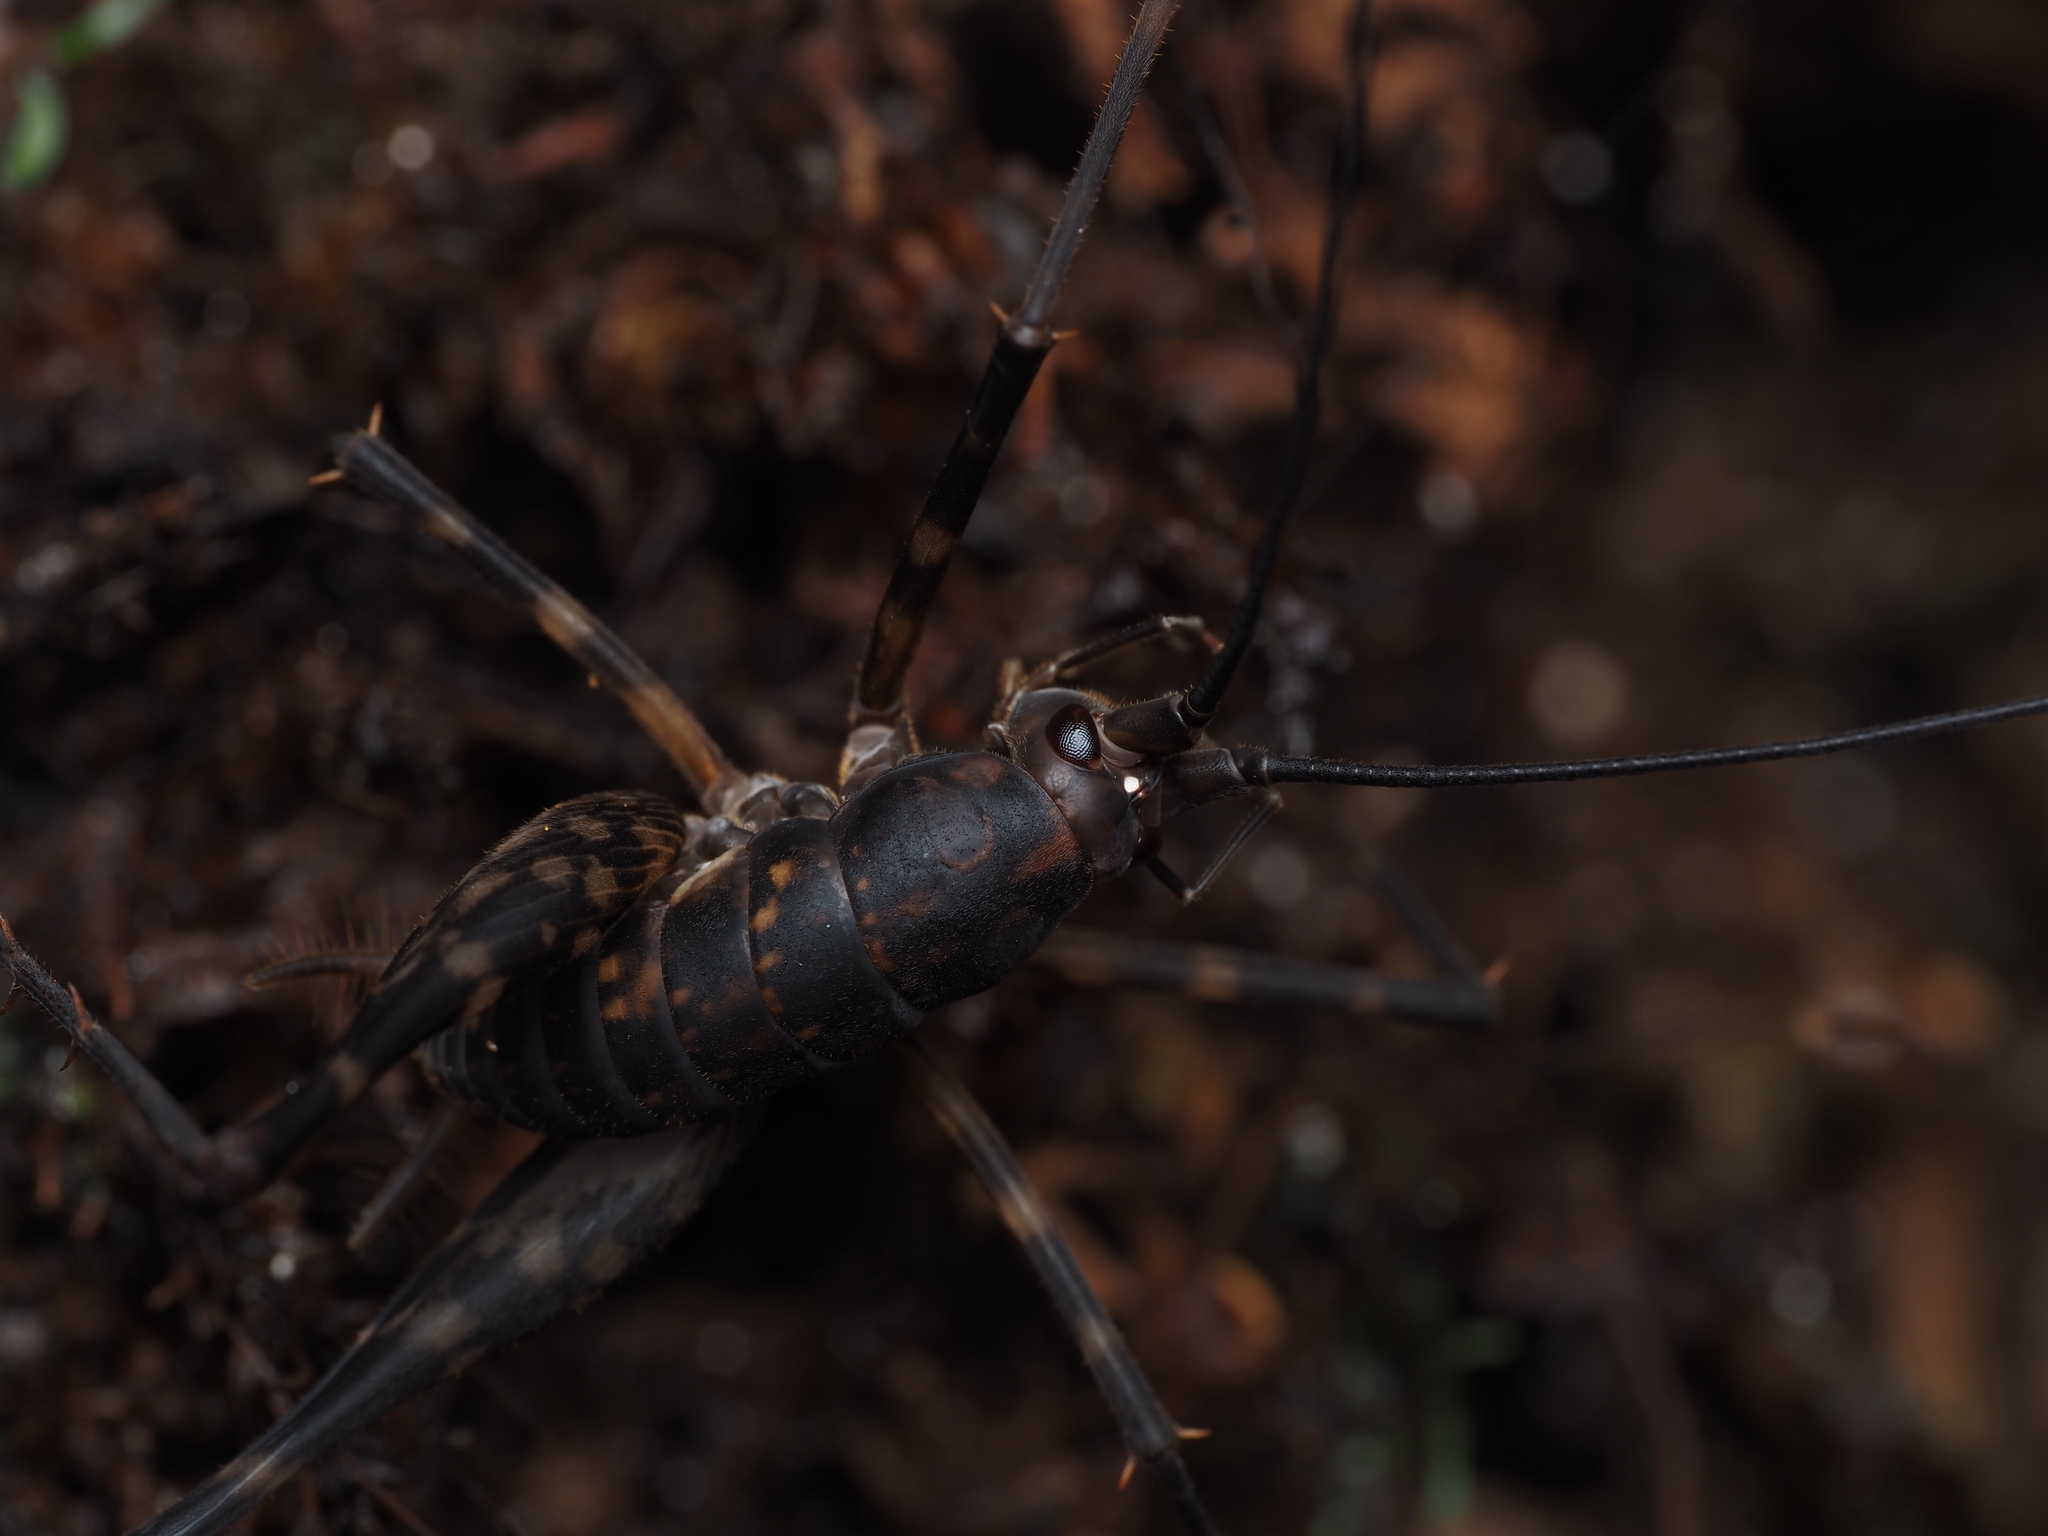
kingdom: Animalia
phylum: Arthropoda
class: Insecta
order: Orthoptera
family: Rhaphidophoridae
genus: Miotopus
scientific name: Miotopus richardsae
